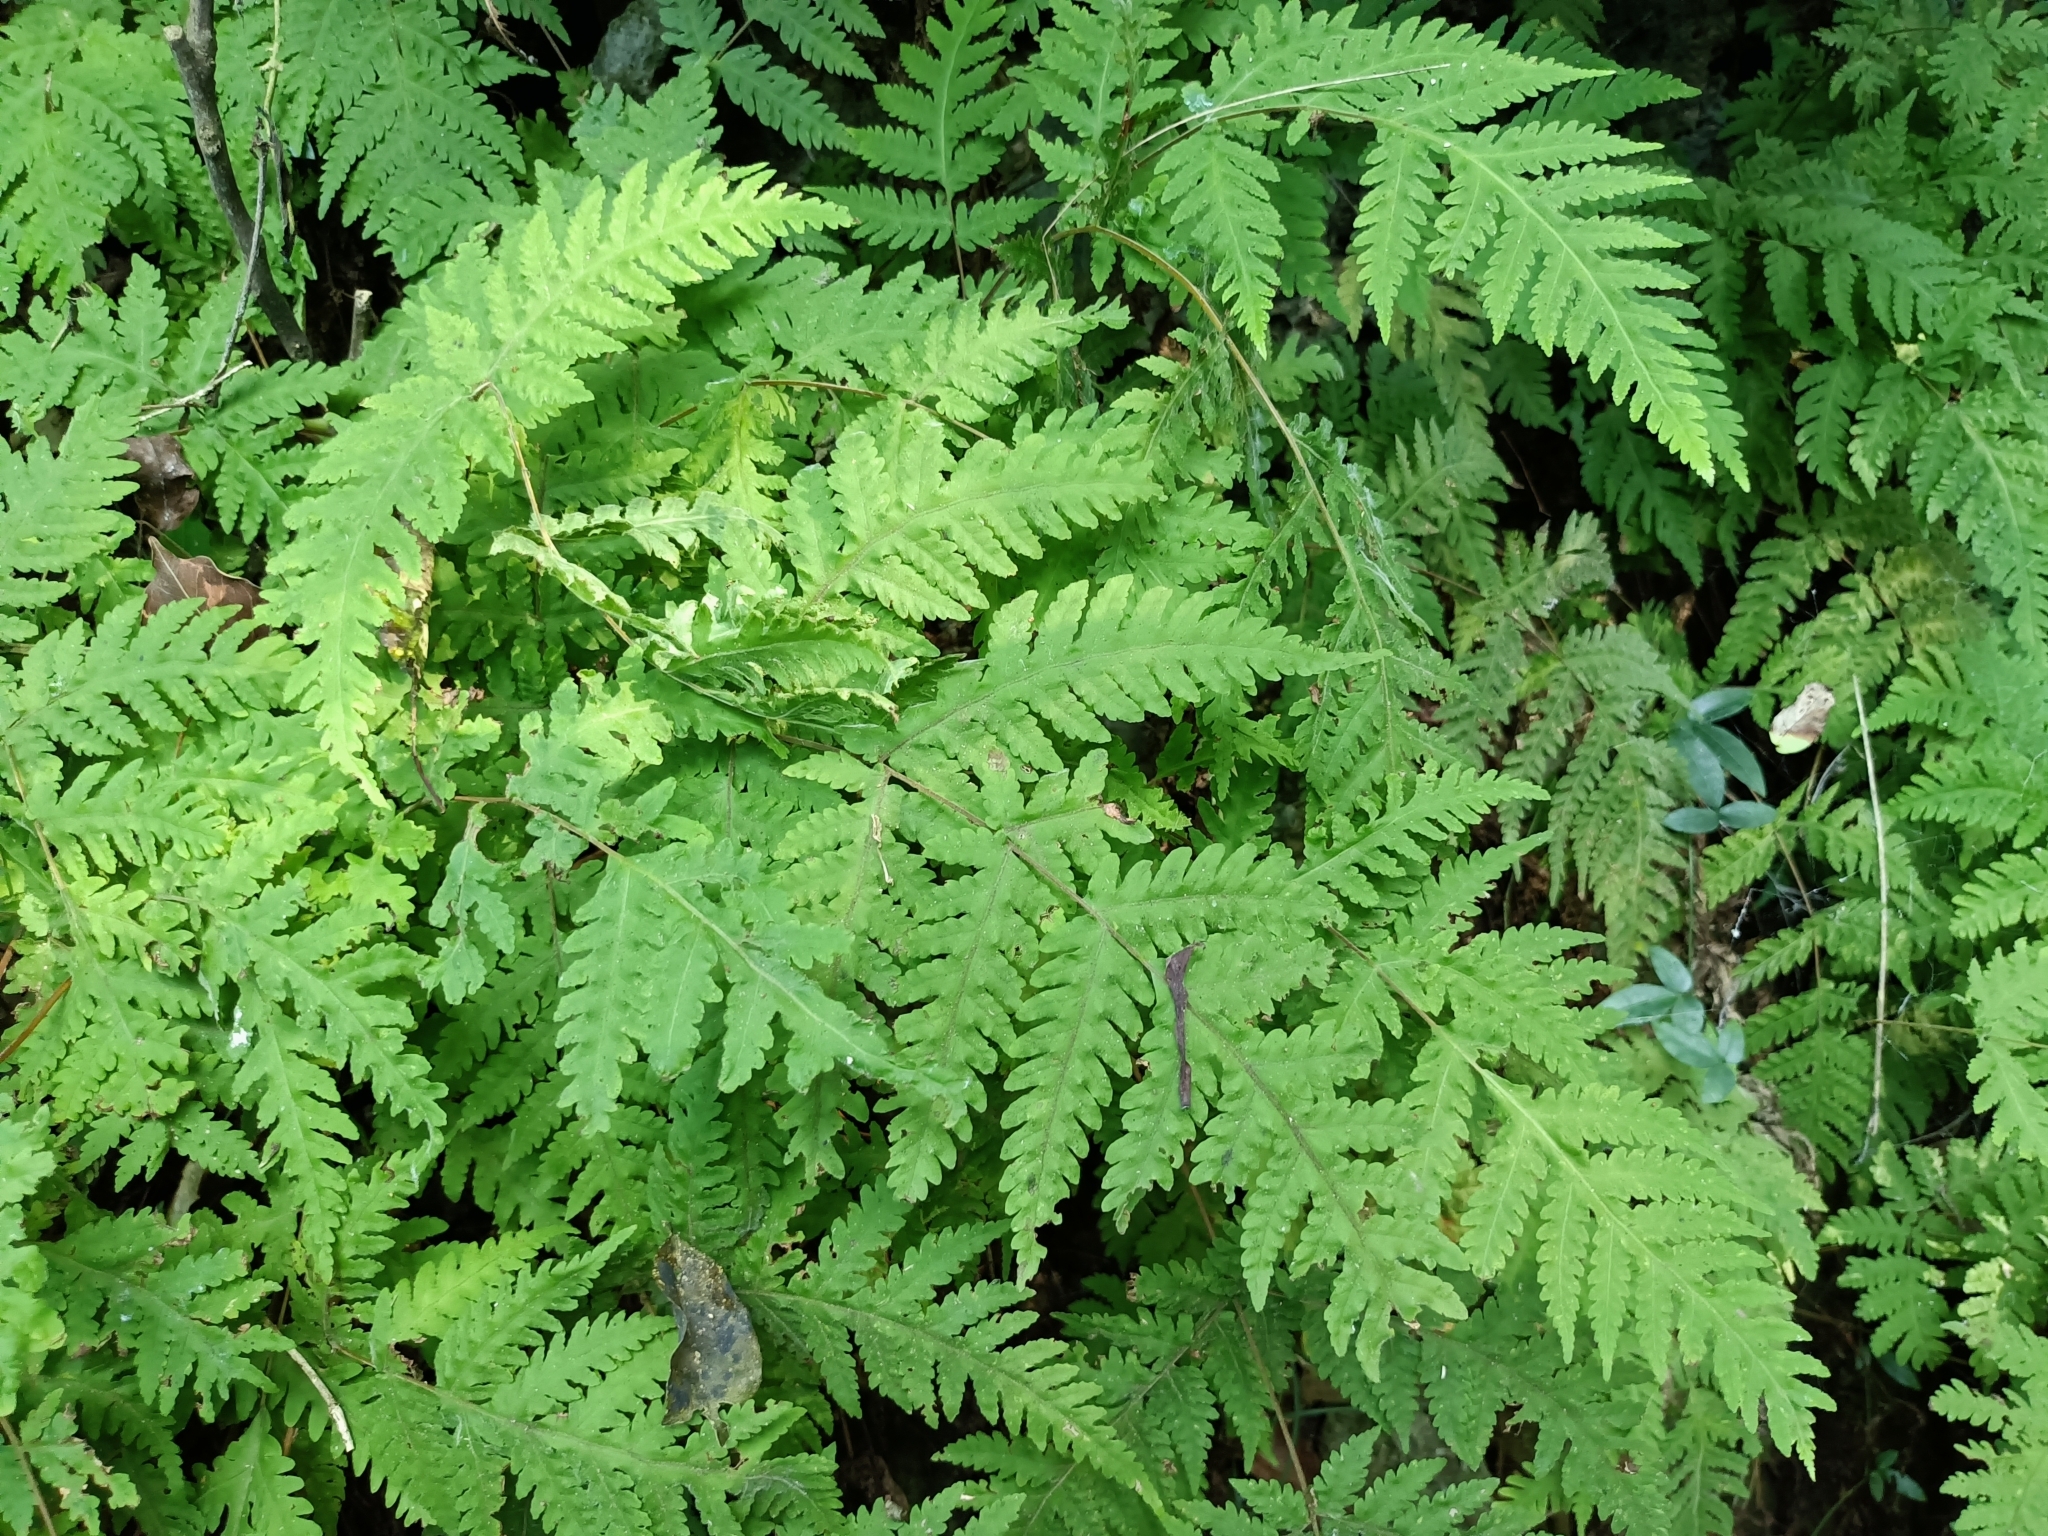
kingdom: Plantae
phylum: Tracheophyta
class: Polypodiopsida
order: Polypodiales
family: Tectariaceae
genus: Tectaria
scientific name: Tectaria membranacea
